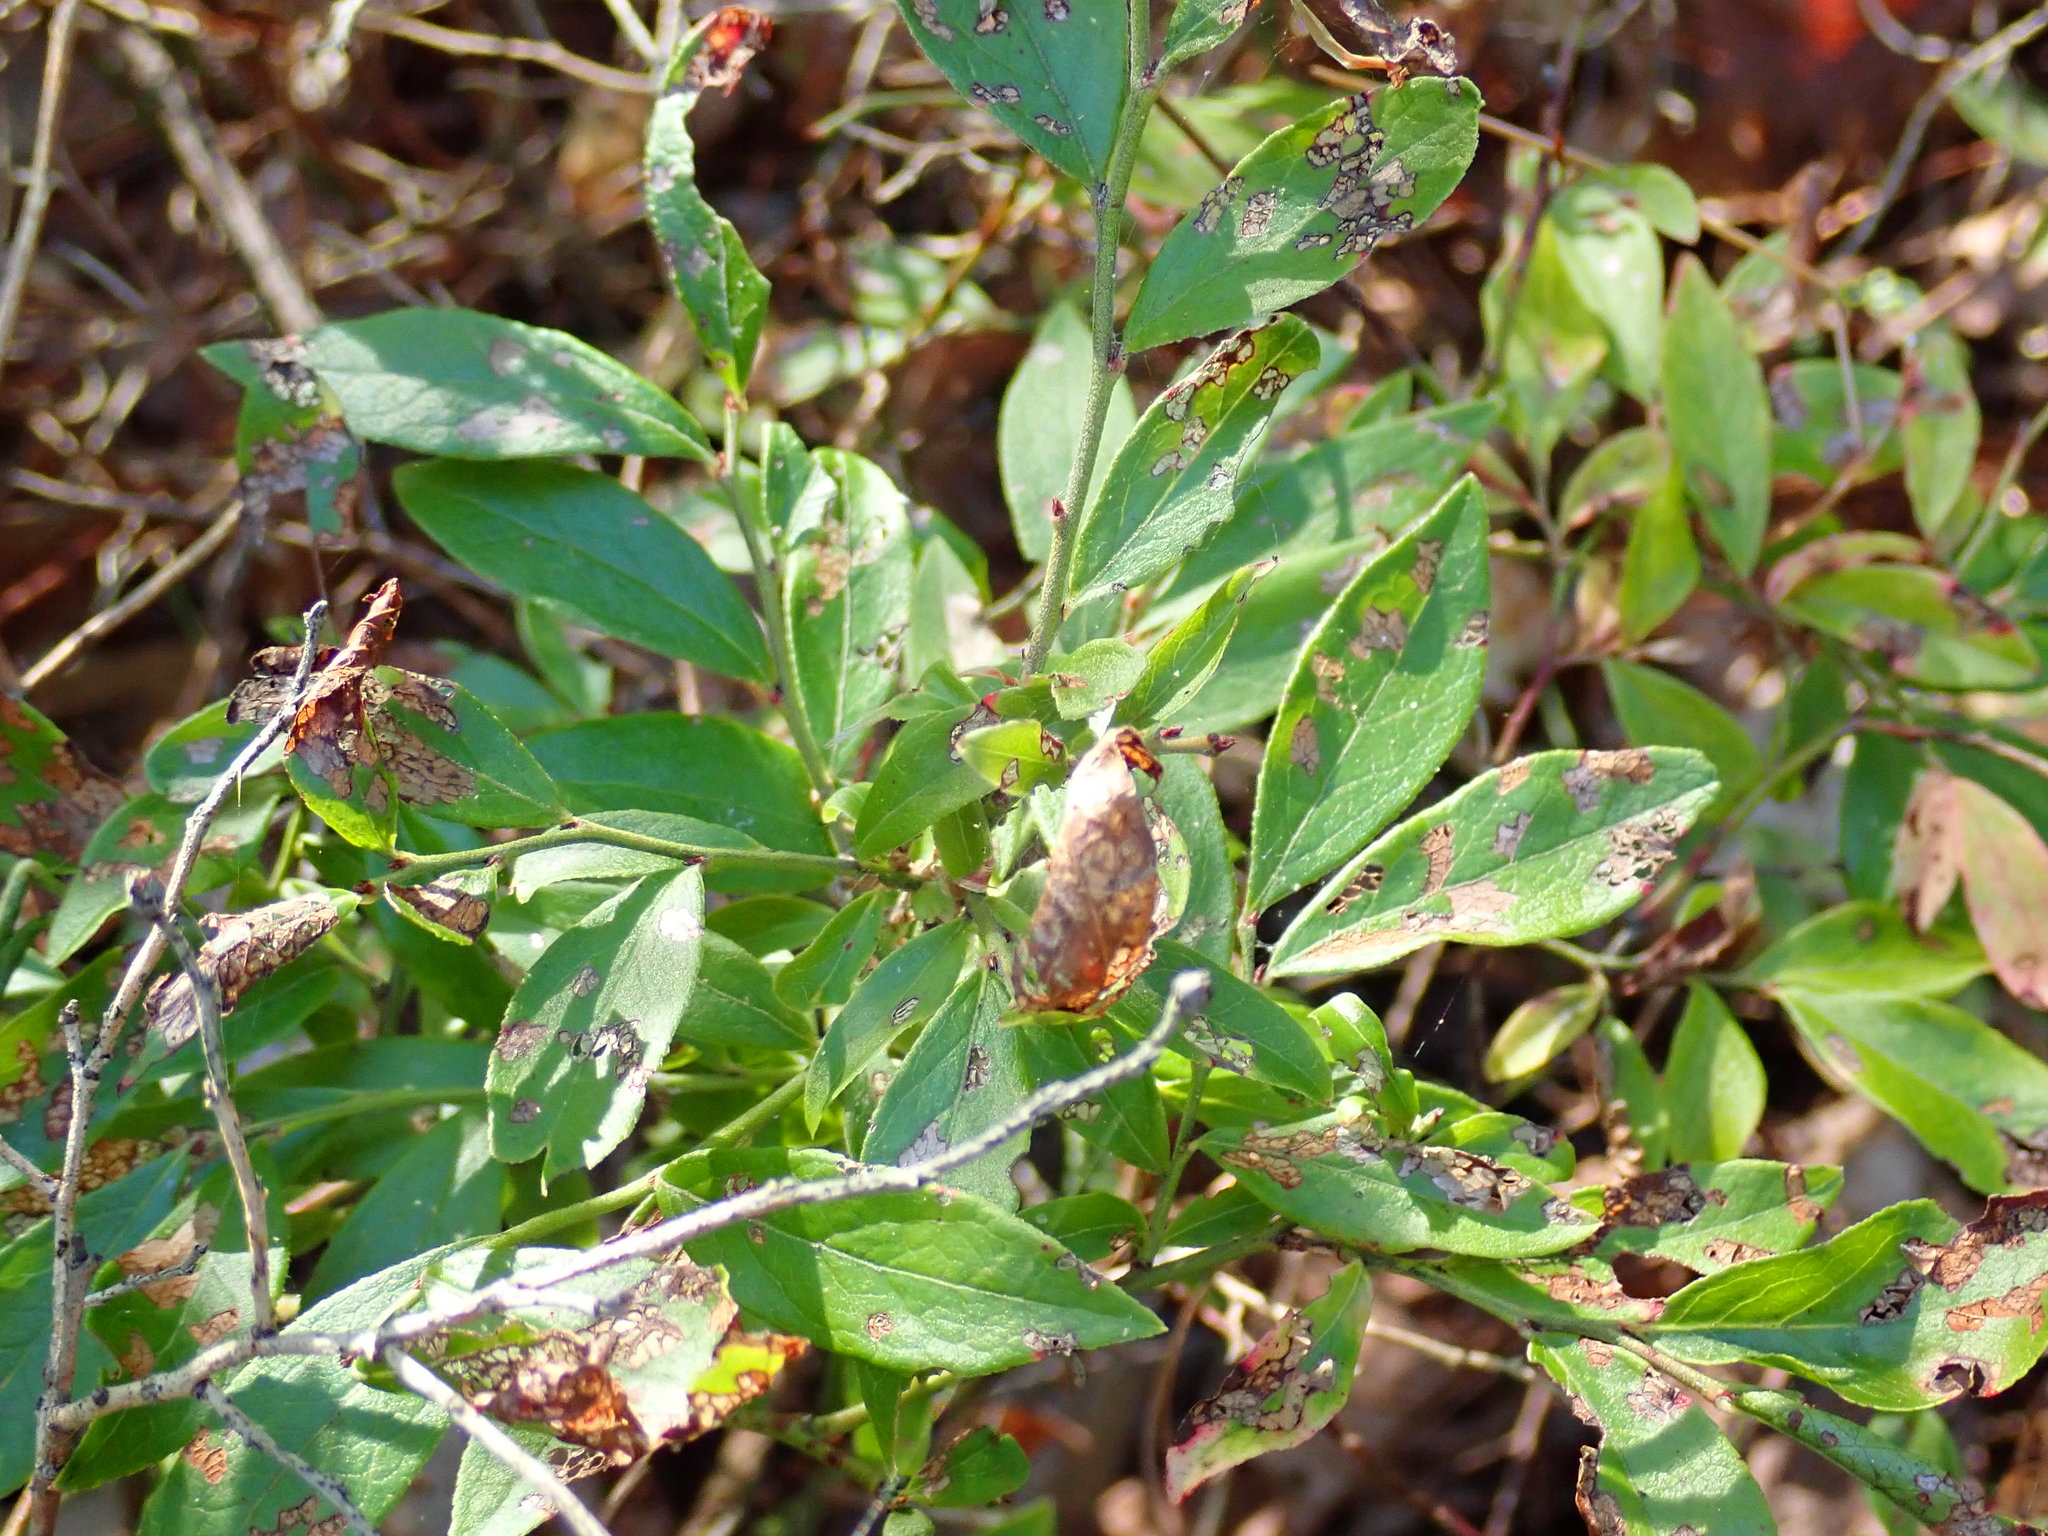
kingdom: Plantae
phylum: Tracheophyta
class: Magnoliopsida
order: Ericales
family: Ericaceae
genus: Vaccinium
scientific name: Vaccinium angustifolium
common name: Early lowbush blueberry
